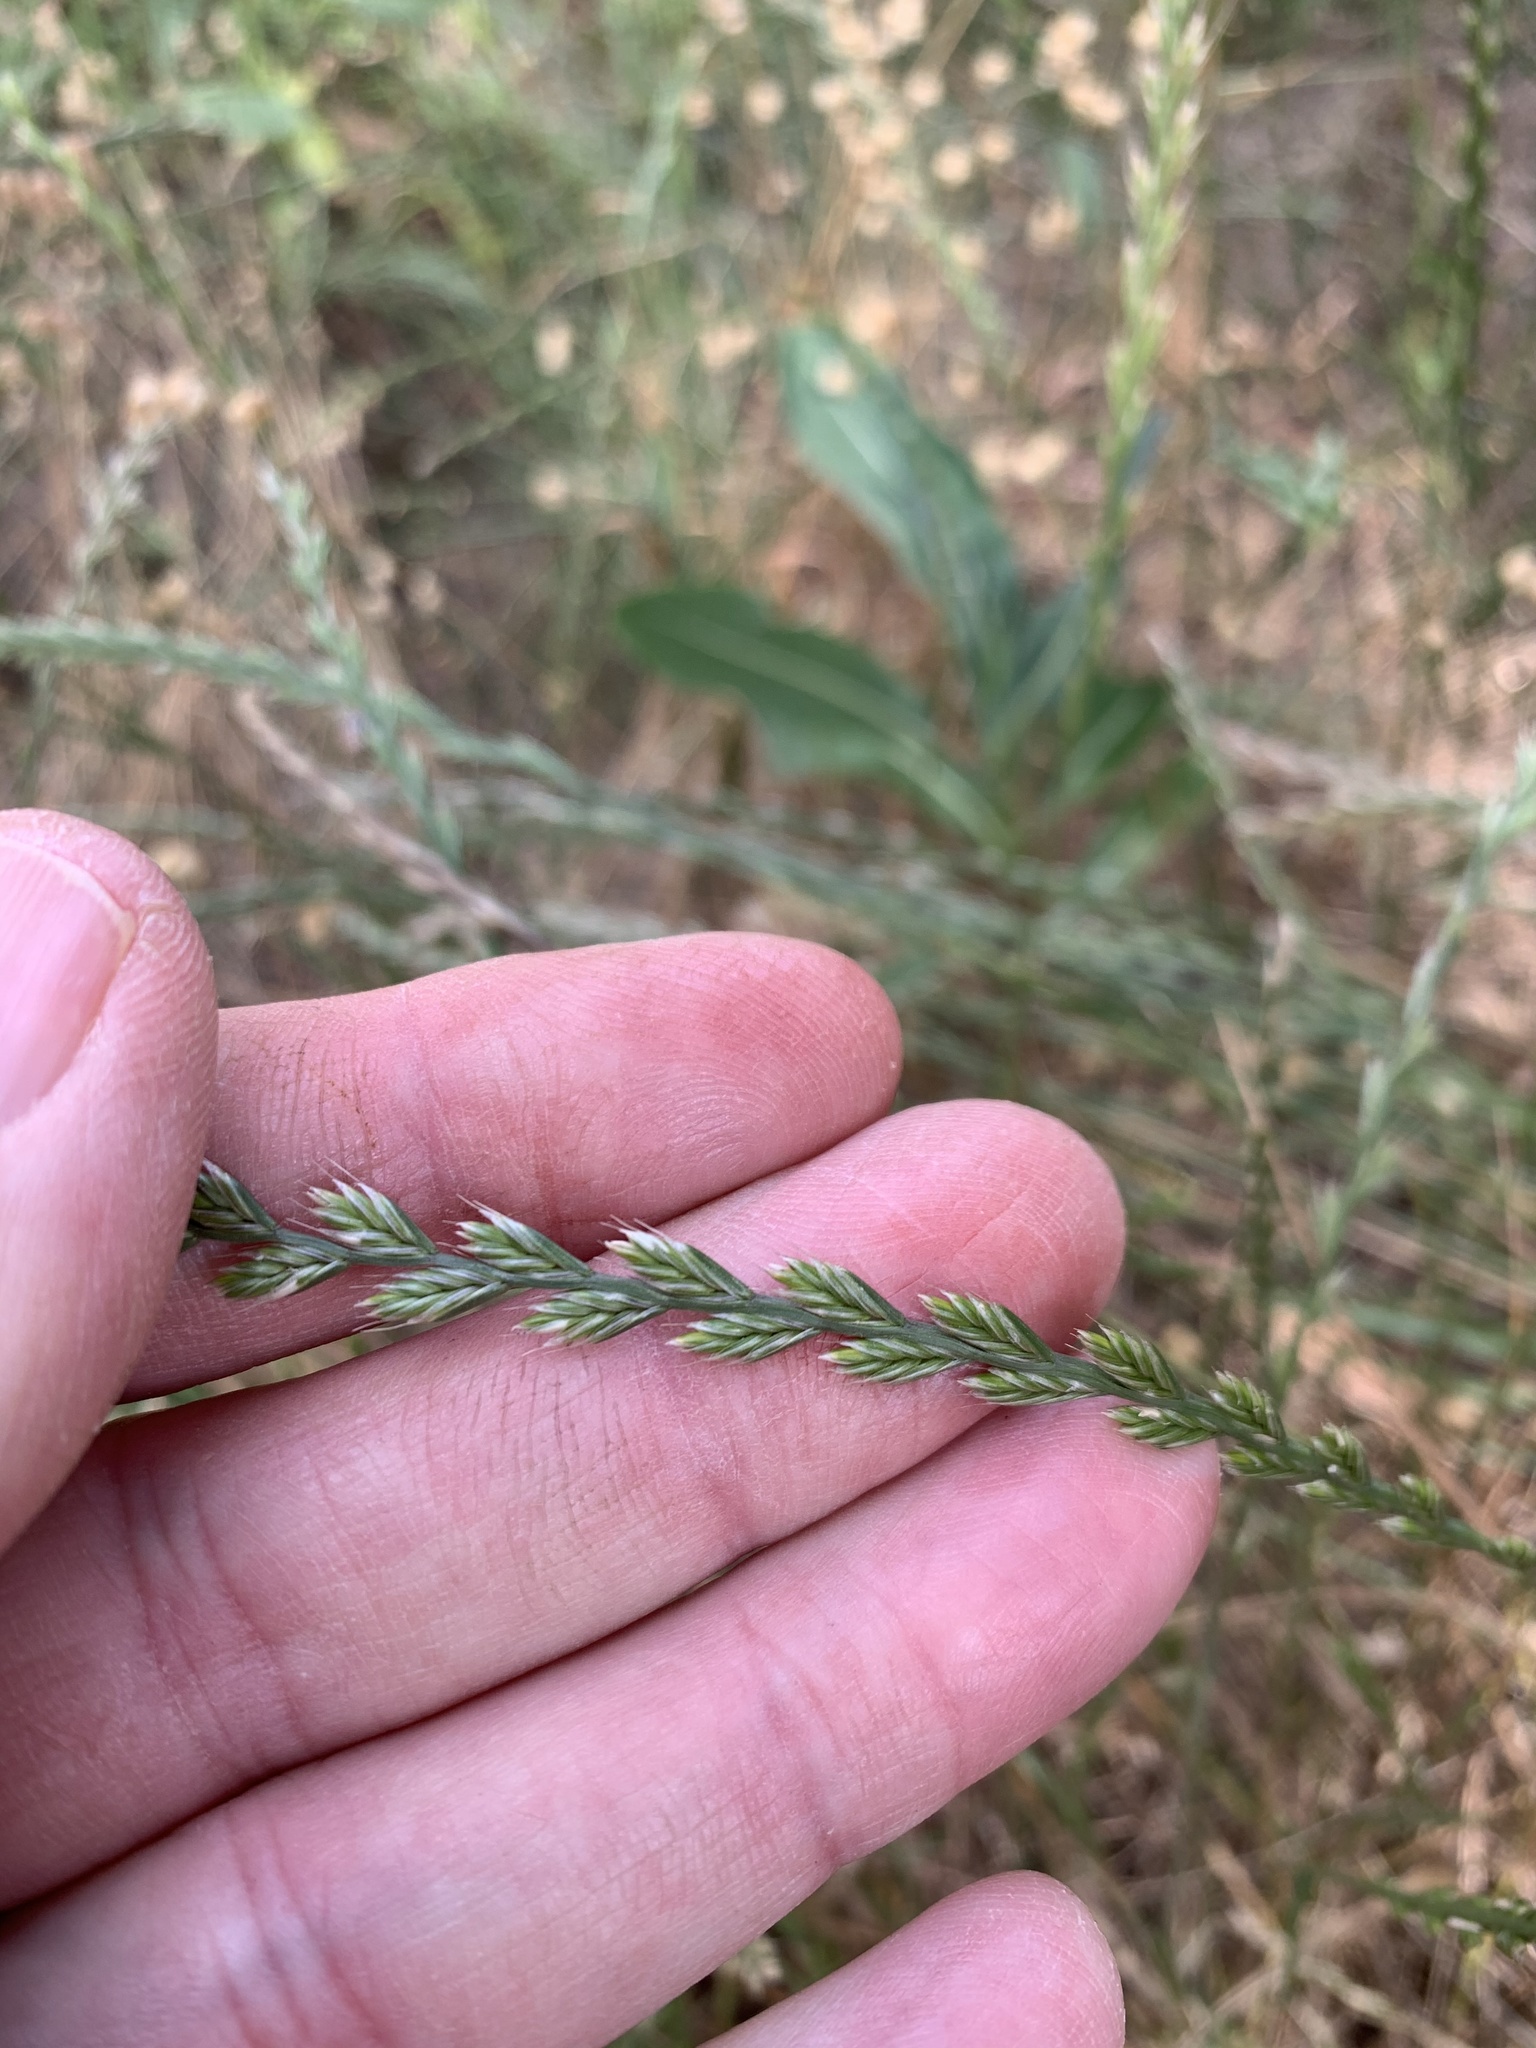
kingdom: Plantae
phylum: Tracheophyta
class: Liliopsida
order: Poales
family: Poaceae
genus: Lolium
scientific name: Lolium multiflorum
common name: Annual ryegrass
